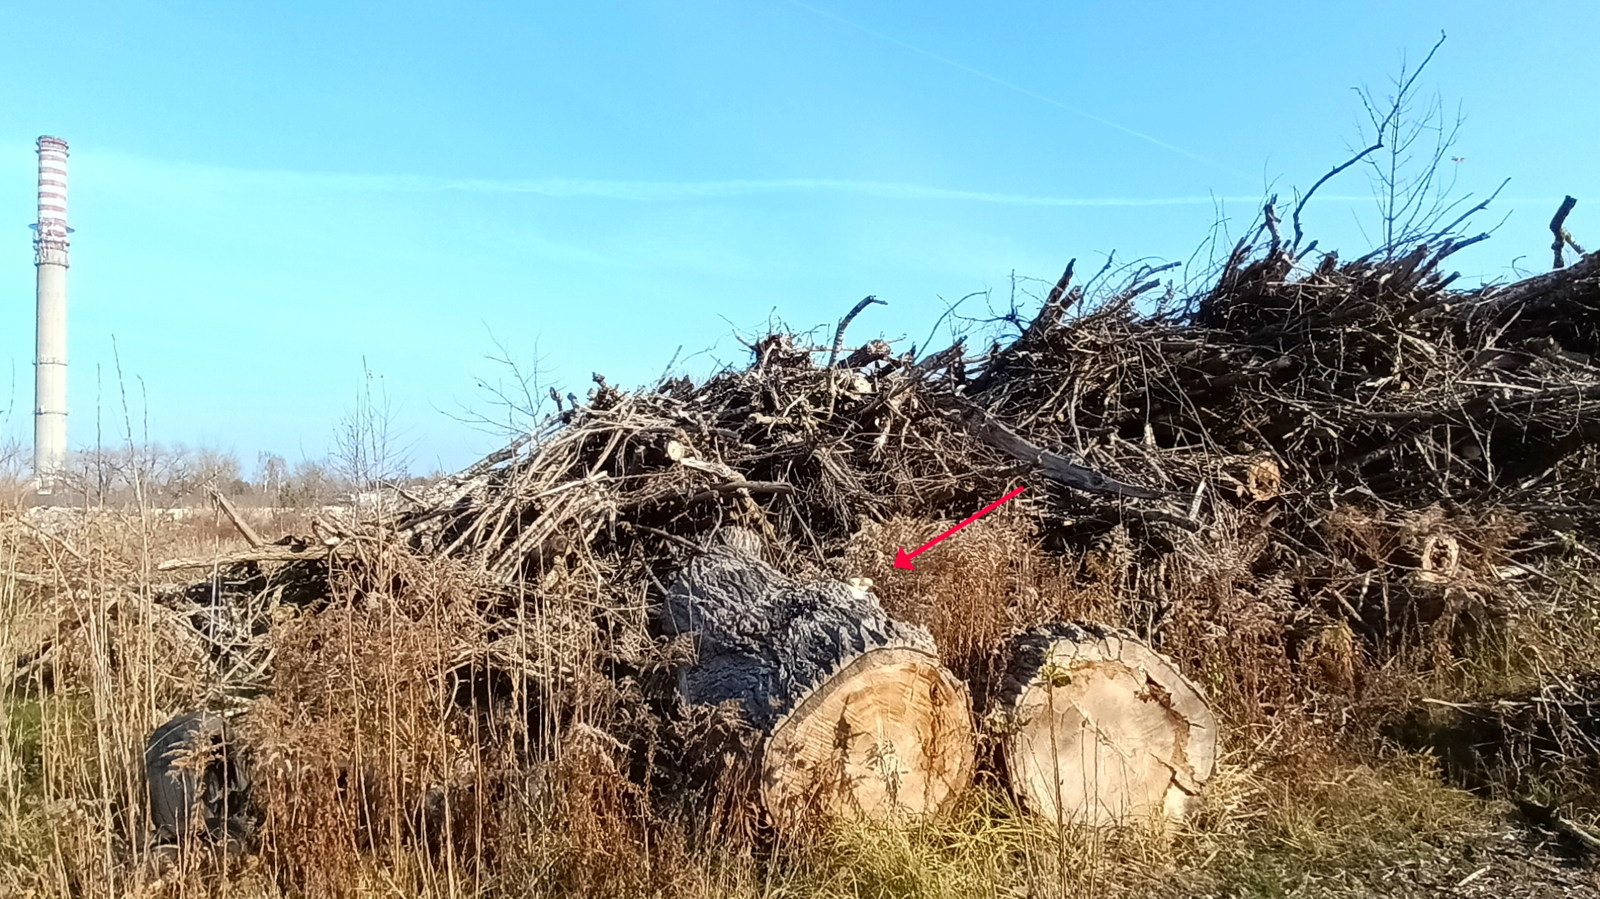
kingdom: Fungi
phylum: Basidiomycota
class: Agaricomycetes
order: Agaricales
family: Strophariaceae
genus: Pholiota
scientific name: Pholiota populnea
